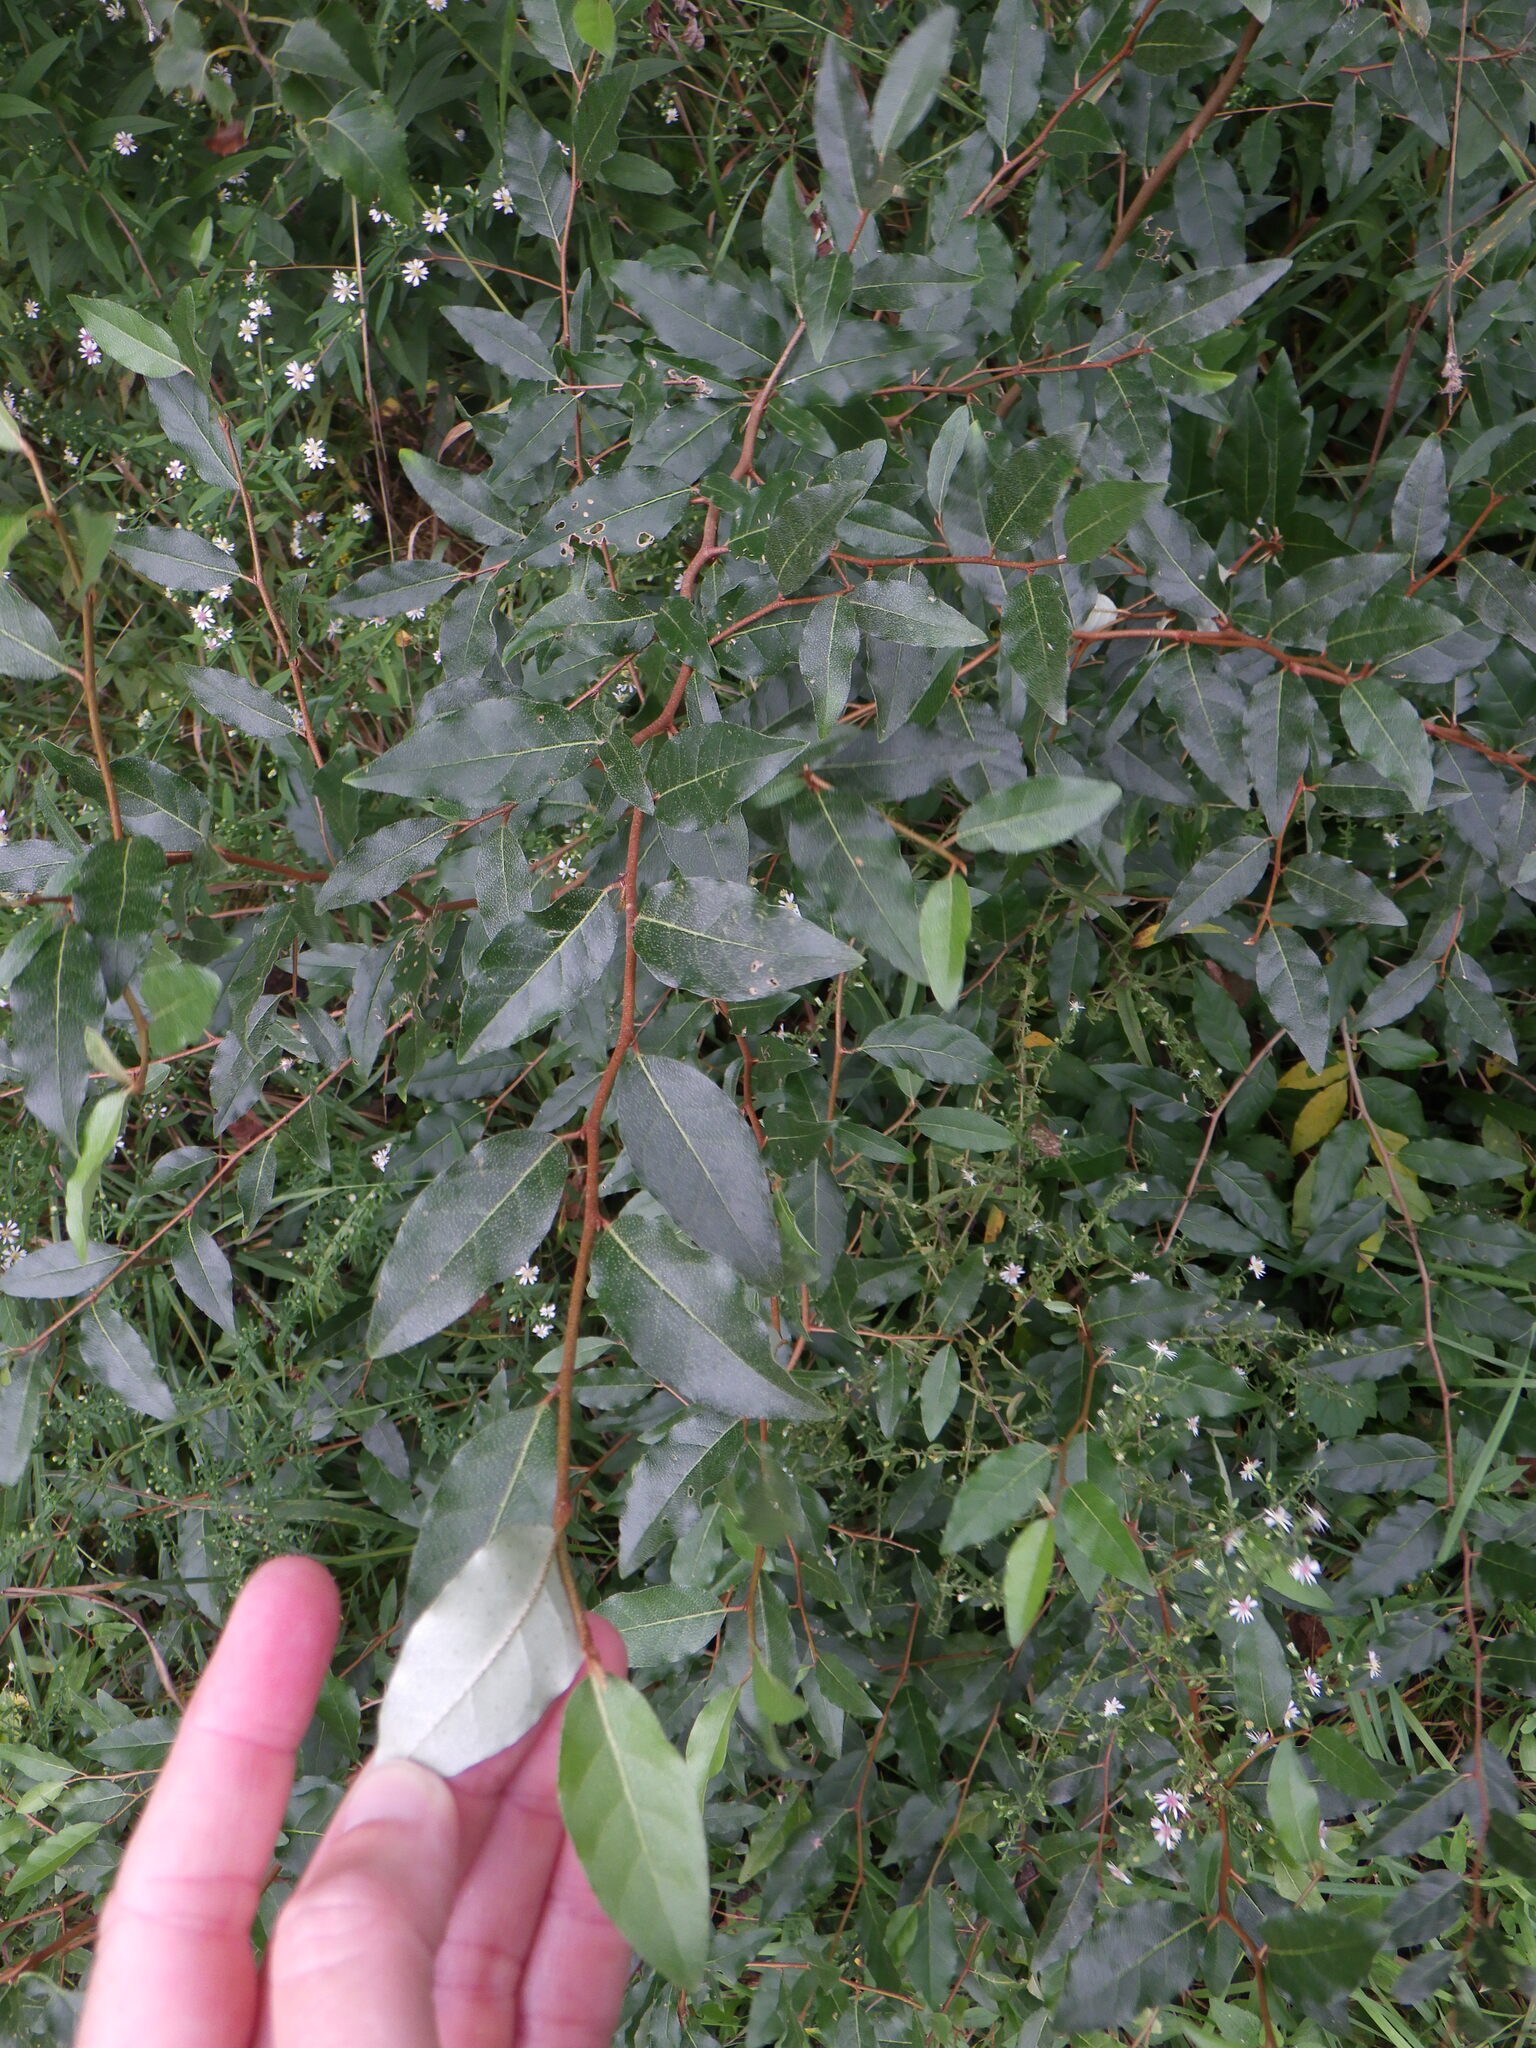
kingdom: Plantae
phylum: Tracheophyta
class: Magnoliopsida
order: Rosales
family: Elaeagnaceae
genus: Elaeagnus
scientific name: Elaeagnus umbellata
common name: Autumn olive
